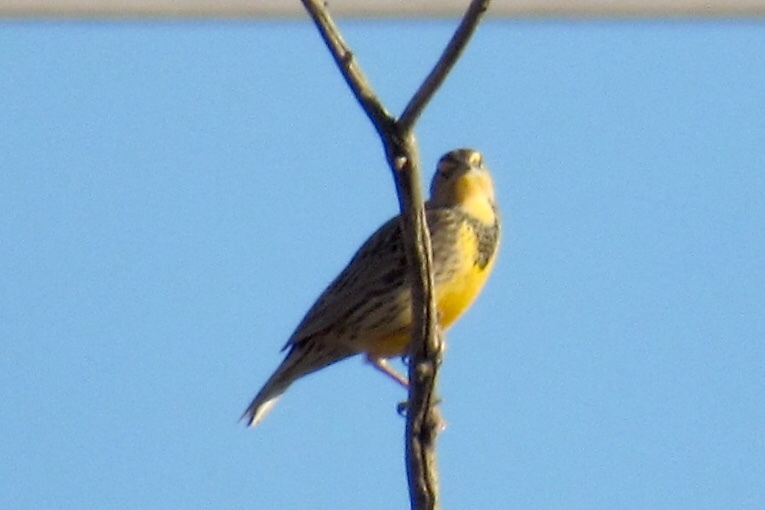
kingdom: Animalia
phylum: Chordata
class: Aves
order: Passeriformes
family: Icteridae
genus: Sturnella
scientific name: Sturnella
